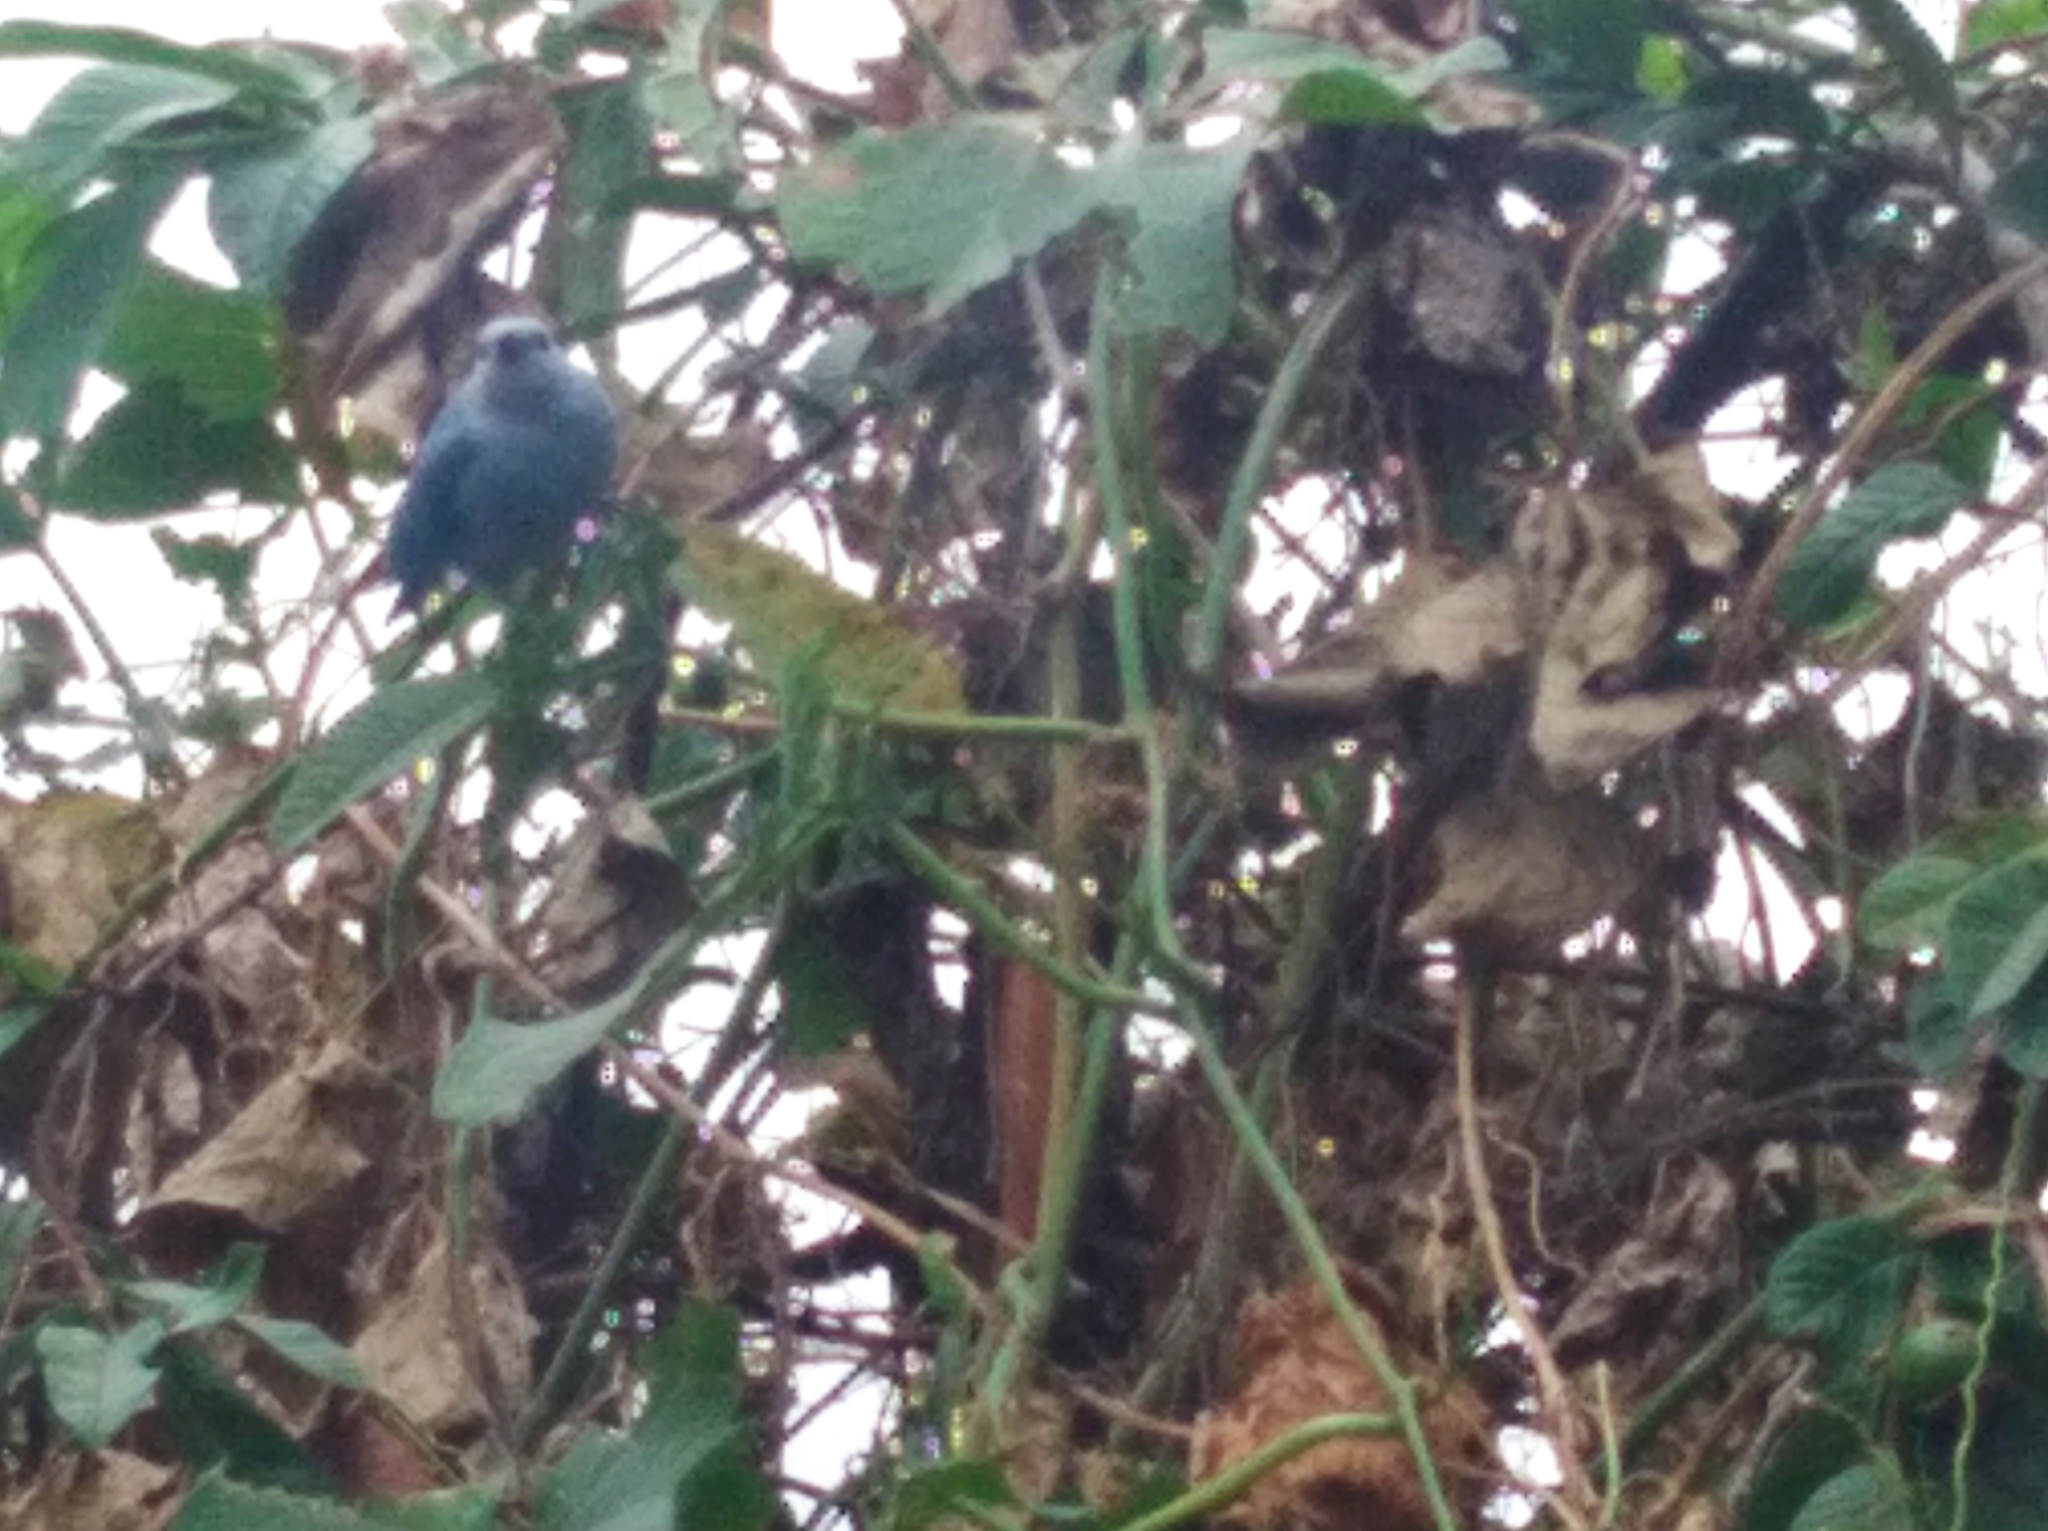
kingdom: Animalia
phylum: Chordata
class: Aves
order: Passeriformes
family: Thraupidae
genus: Thraupis
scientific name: Thraupis episcopus
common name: Blue-grey tanager
